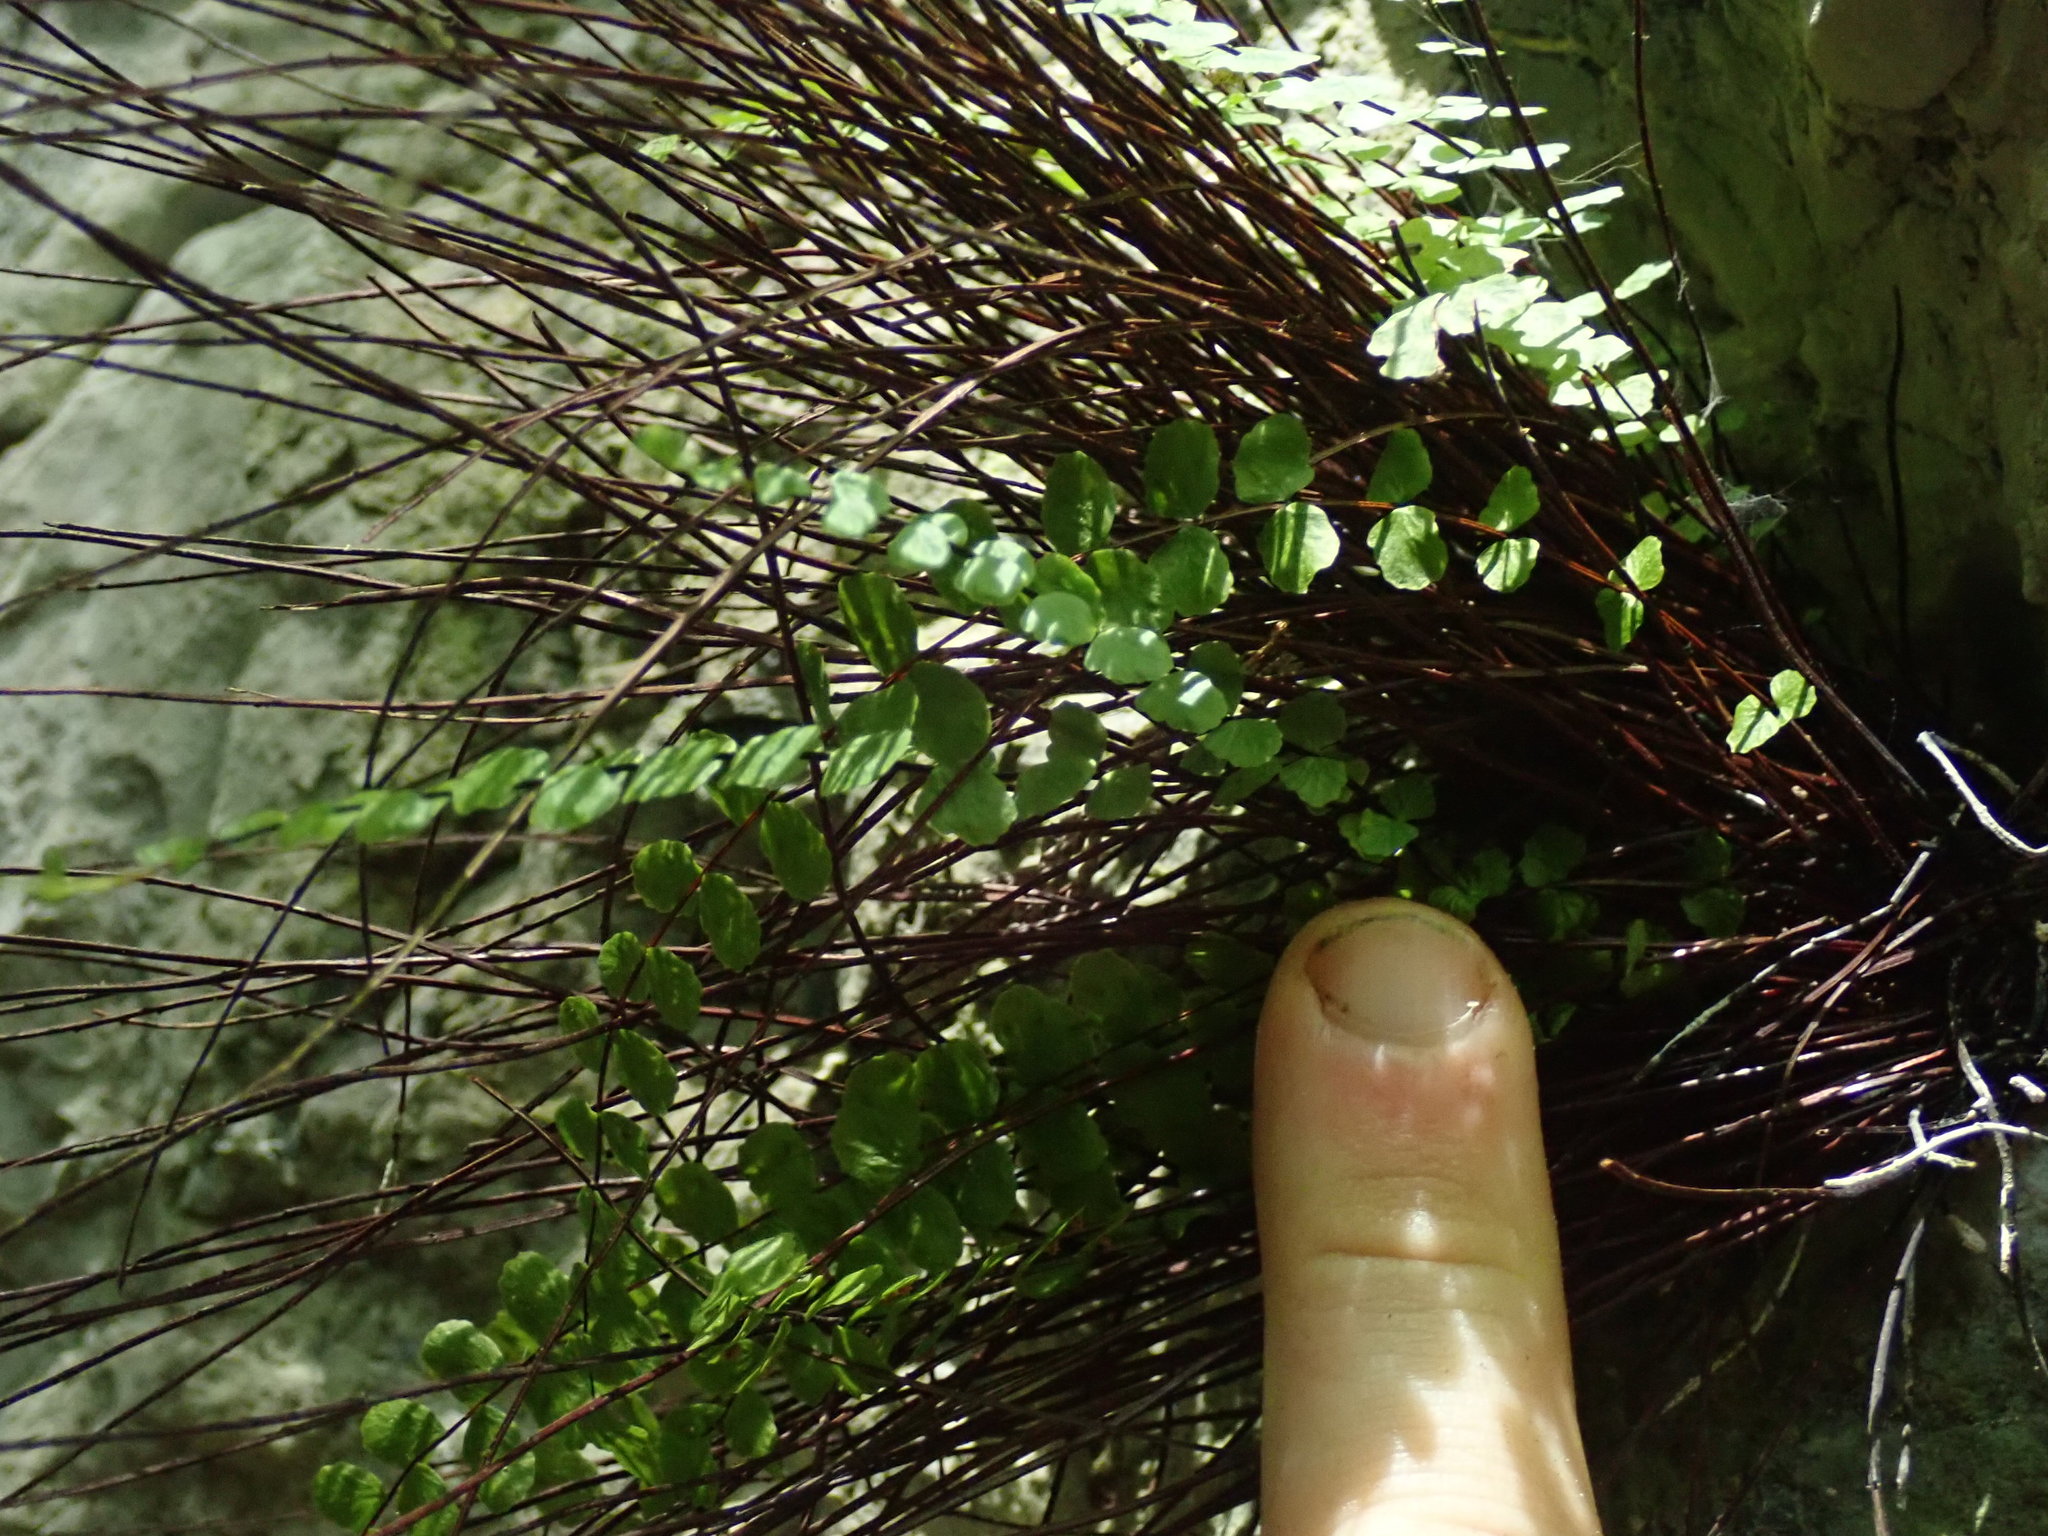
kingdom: Plantae
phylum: Tracheophyta
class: Polypodiopsida
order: Polypodiales
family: Aspleniaceae
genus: Asplenium
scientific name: Asplenium trichomanes
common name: Maidenhair spleenwort
